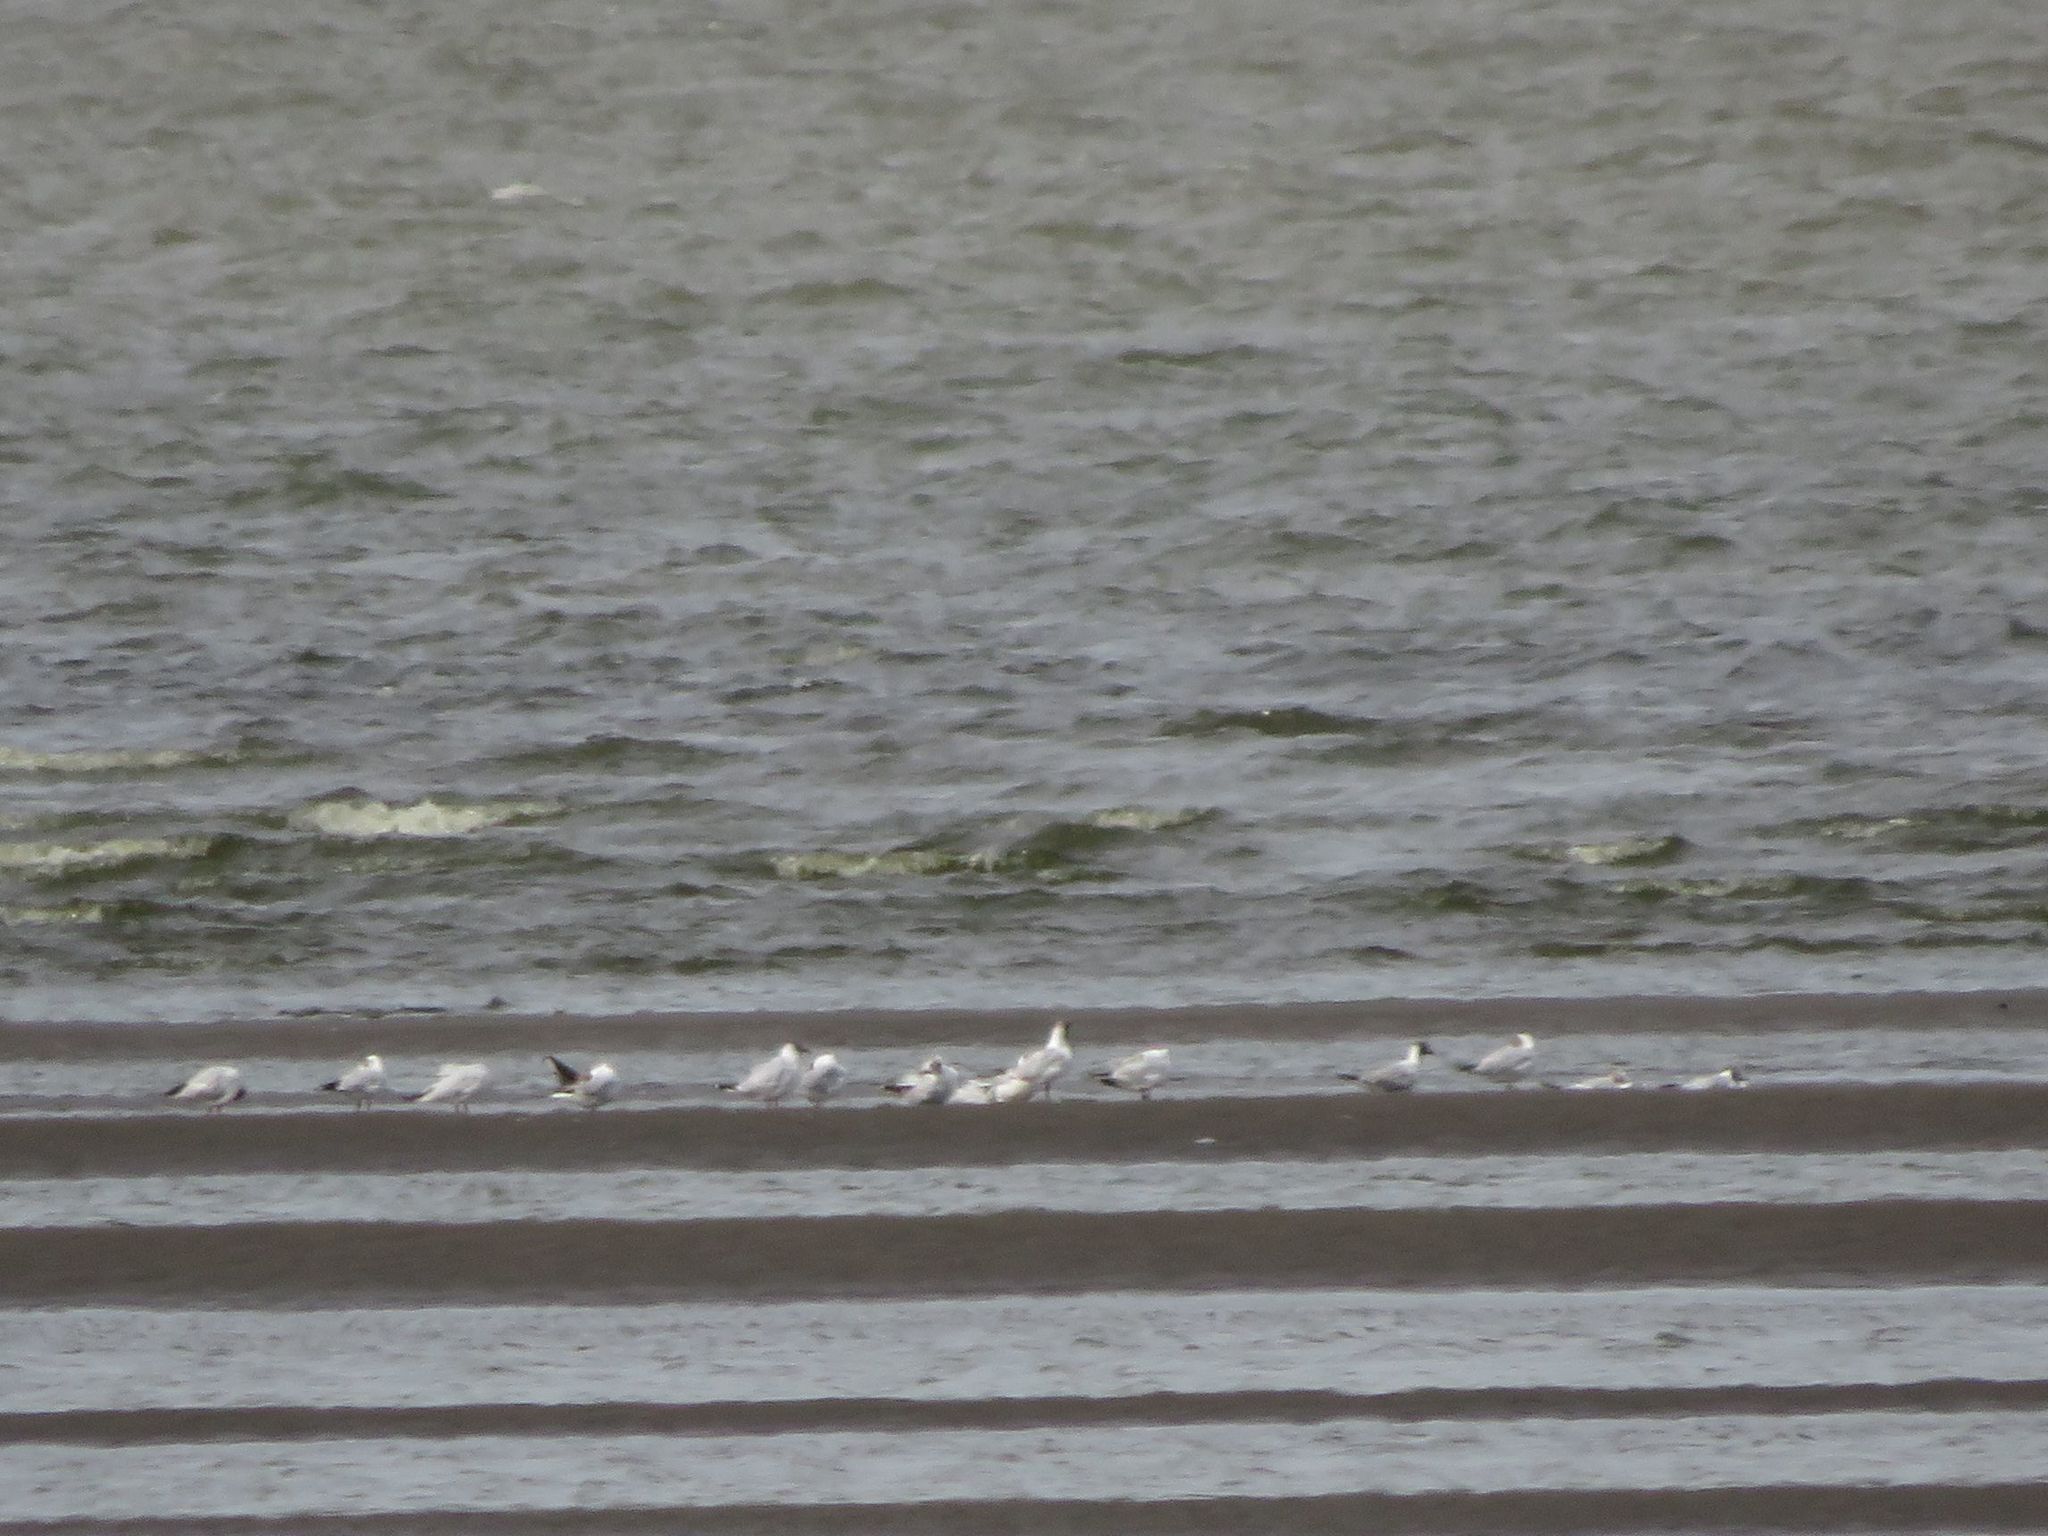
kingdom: Animalia
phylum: Chordata
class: Aves
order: Charadriiformes
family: Laridae
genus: Chroicocephalus
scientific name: Chroicocephalus maculipennis
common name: Brown-hooded gull
